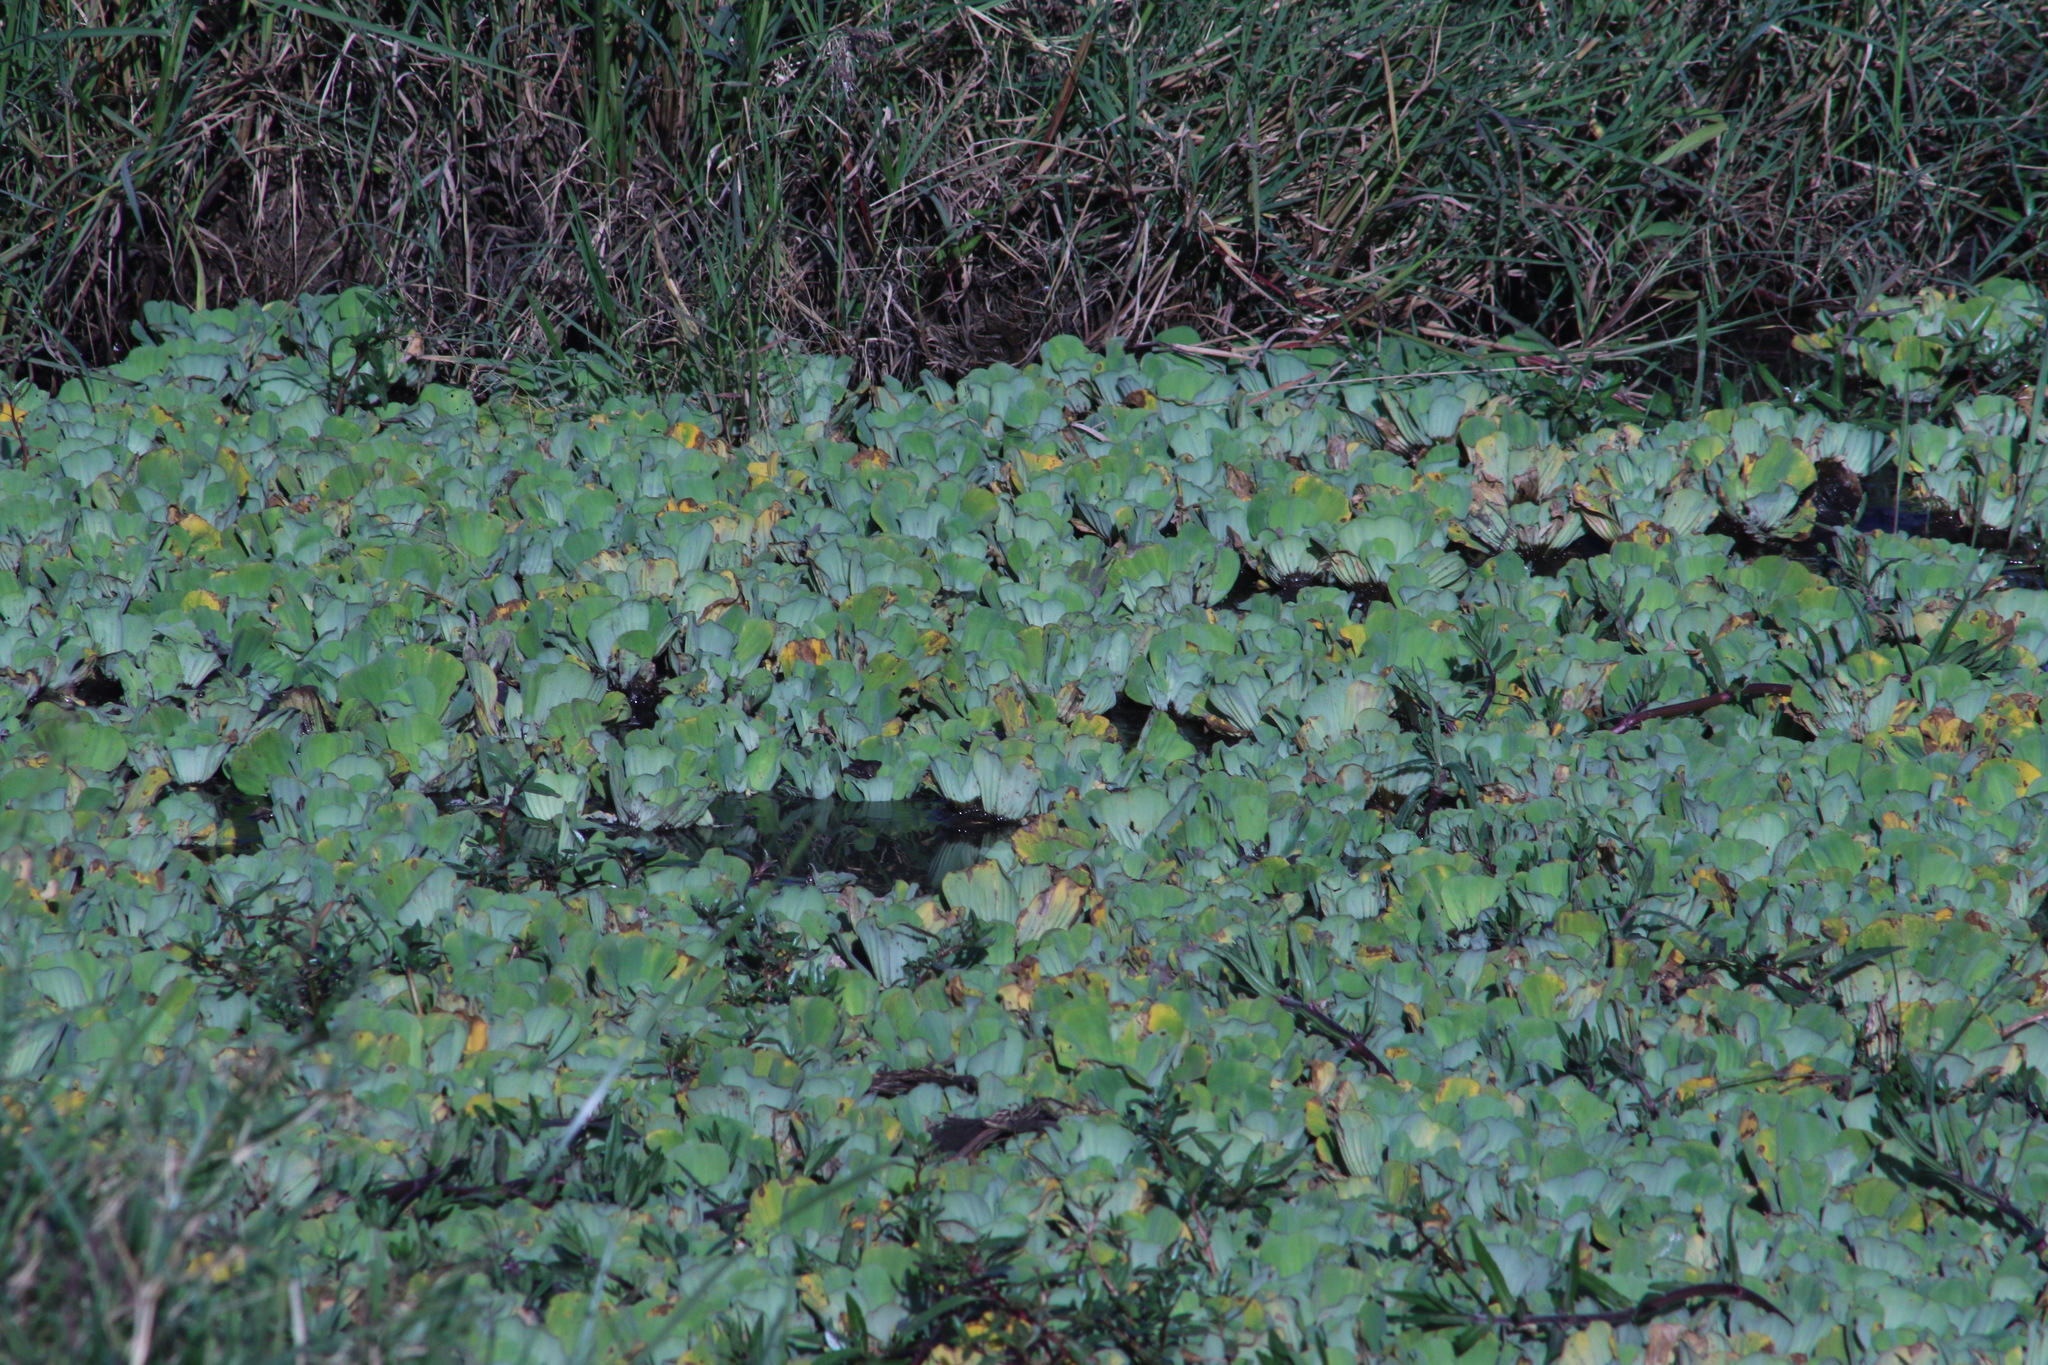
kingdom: Plantae
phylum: Tracheophyta
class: Liliopsida
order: Alismatales
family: Araceae
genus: Pistia
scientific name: Pistia stratiotes
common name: Water lettuce
